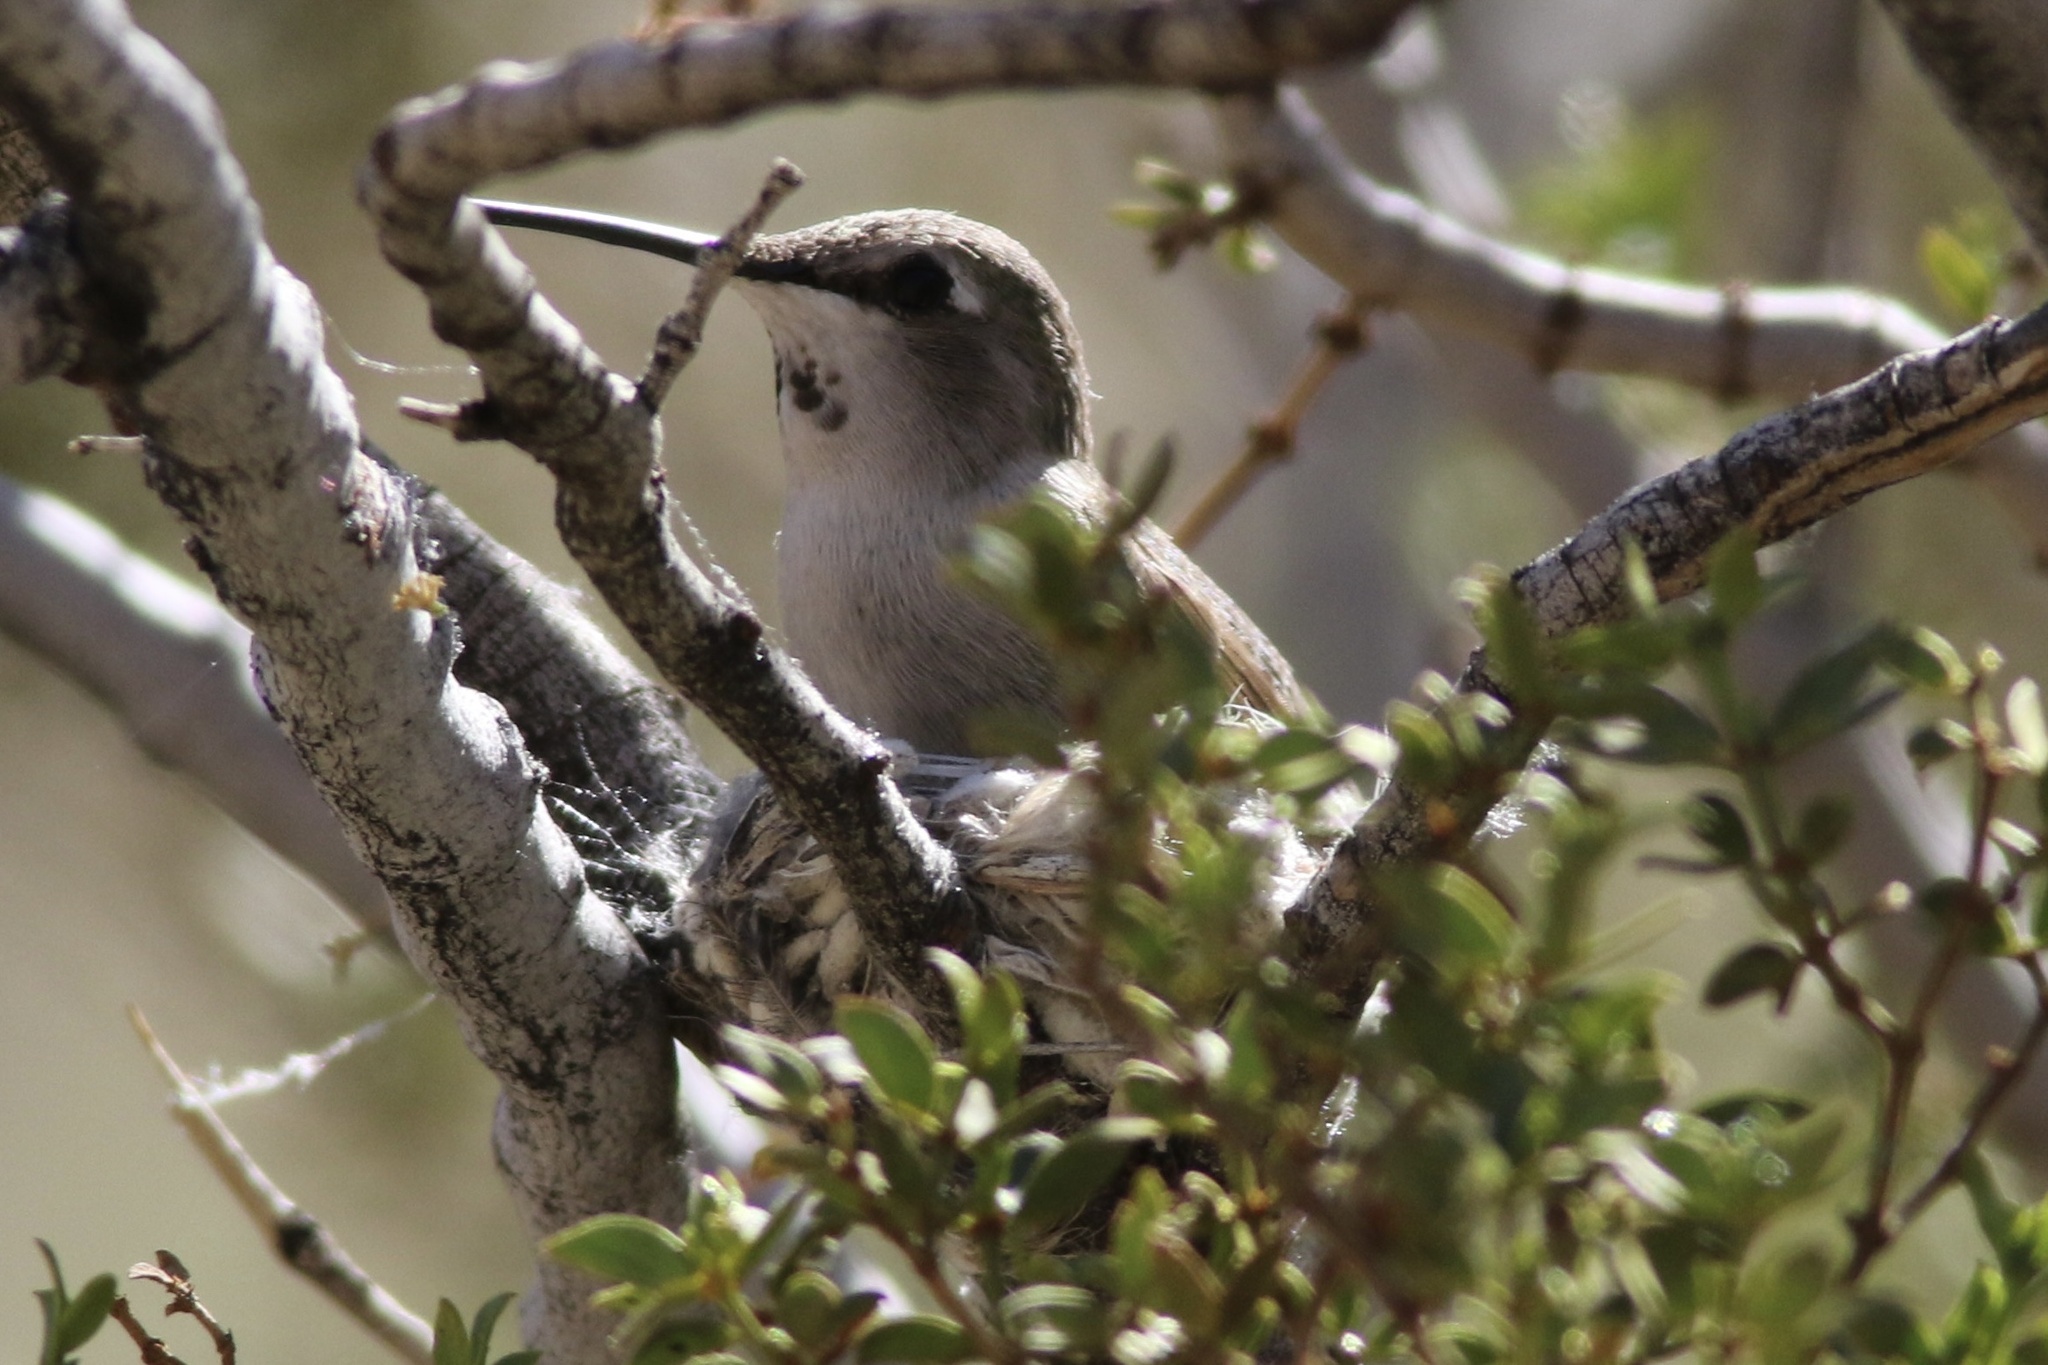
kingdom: Animalia
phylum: Chordata
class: Aves
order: Apodiformes
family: Trochilidae
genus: Calypte
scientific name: Calypte costae
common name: Costa's hummingbird
